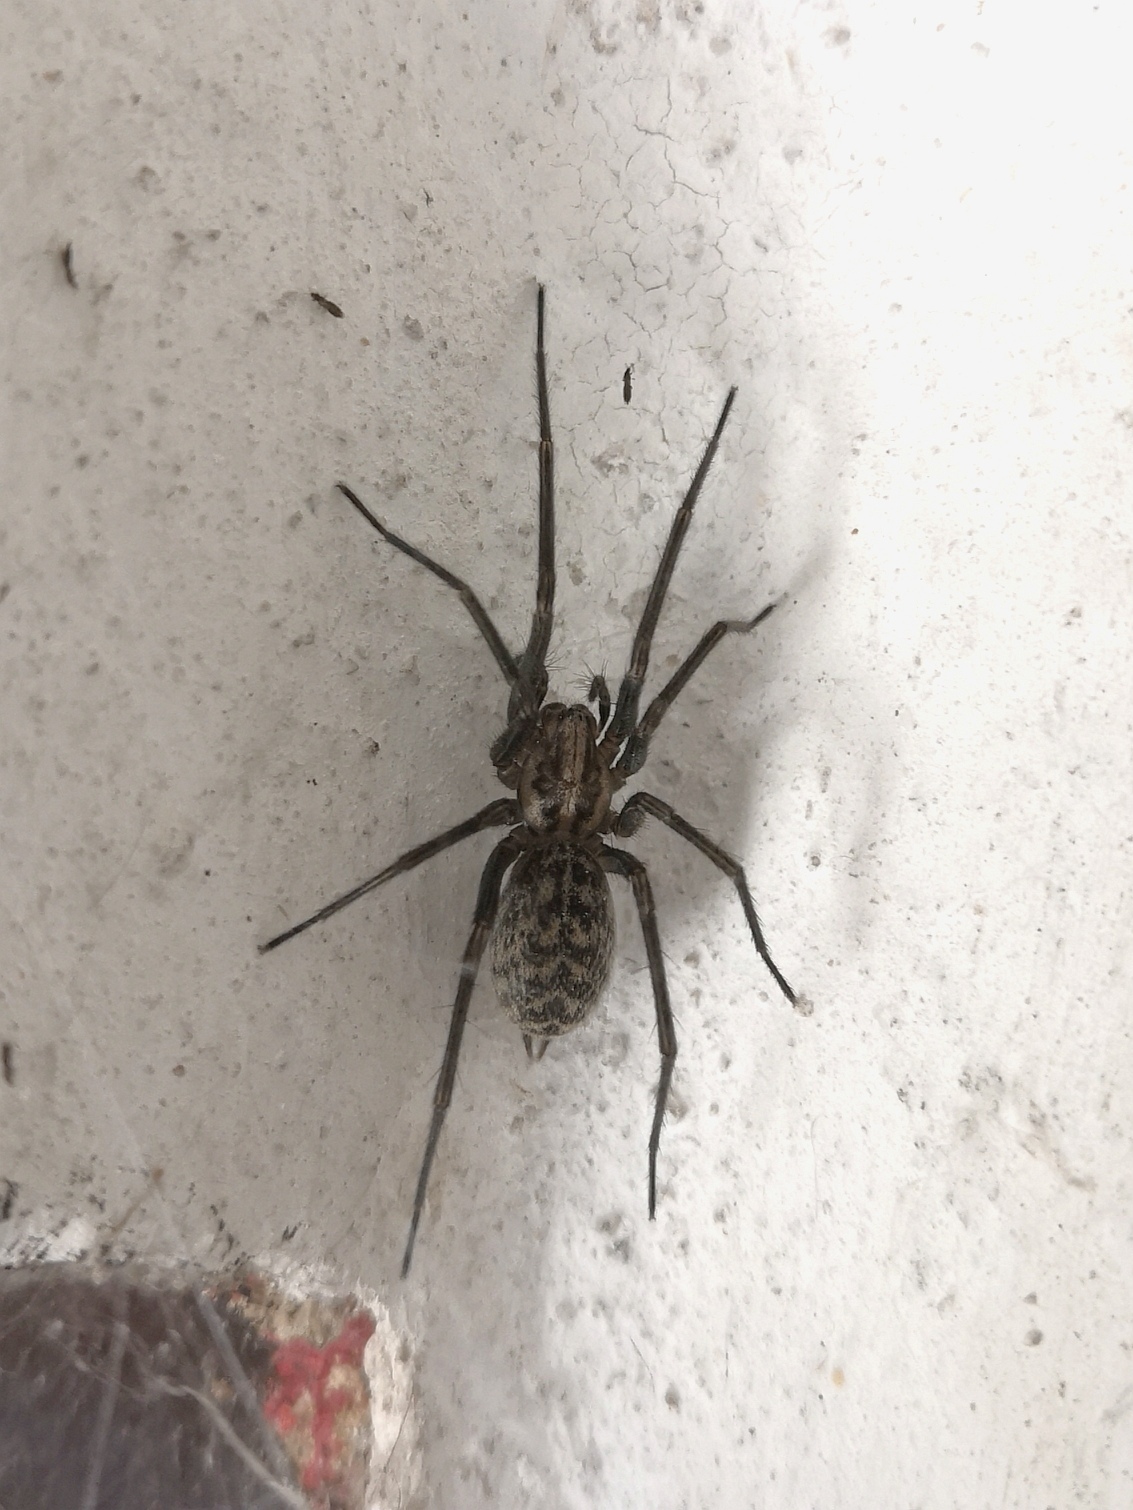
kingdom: Animalia
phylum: Arthropoda
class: Arachnida
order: Araneae
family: Agelenidae
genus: Eratigena
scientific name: Eratigena atrica
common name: Giant house spider
